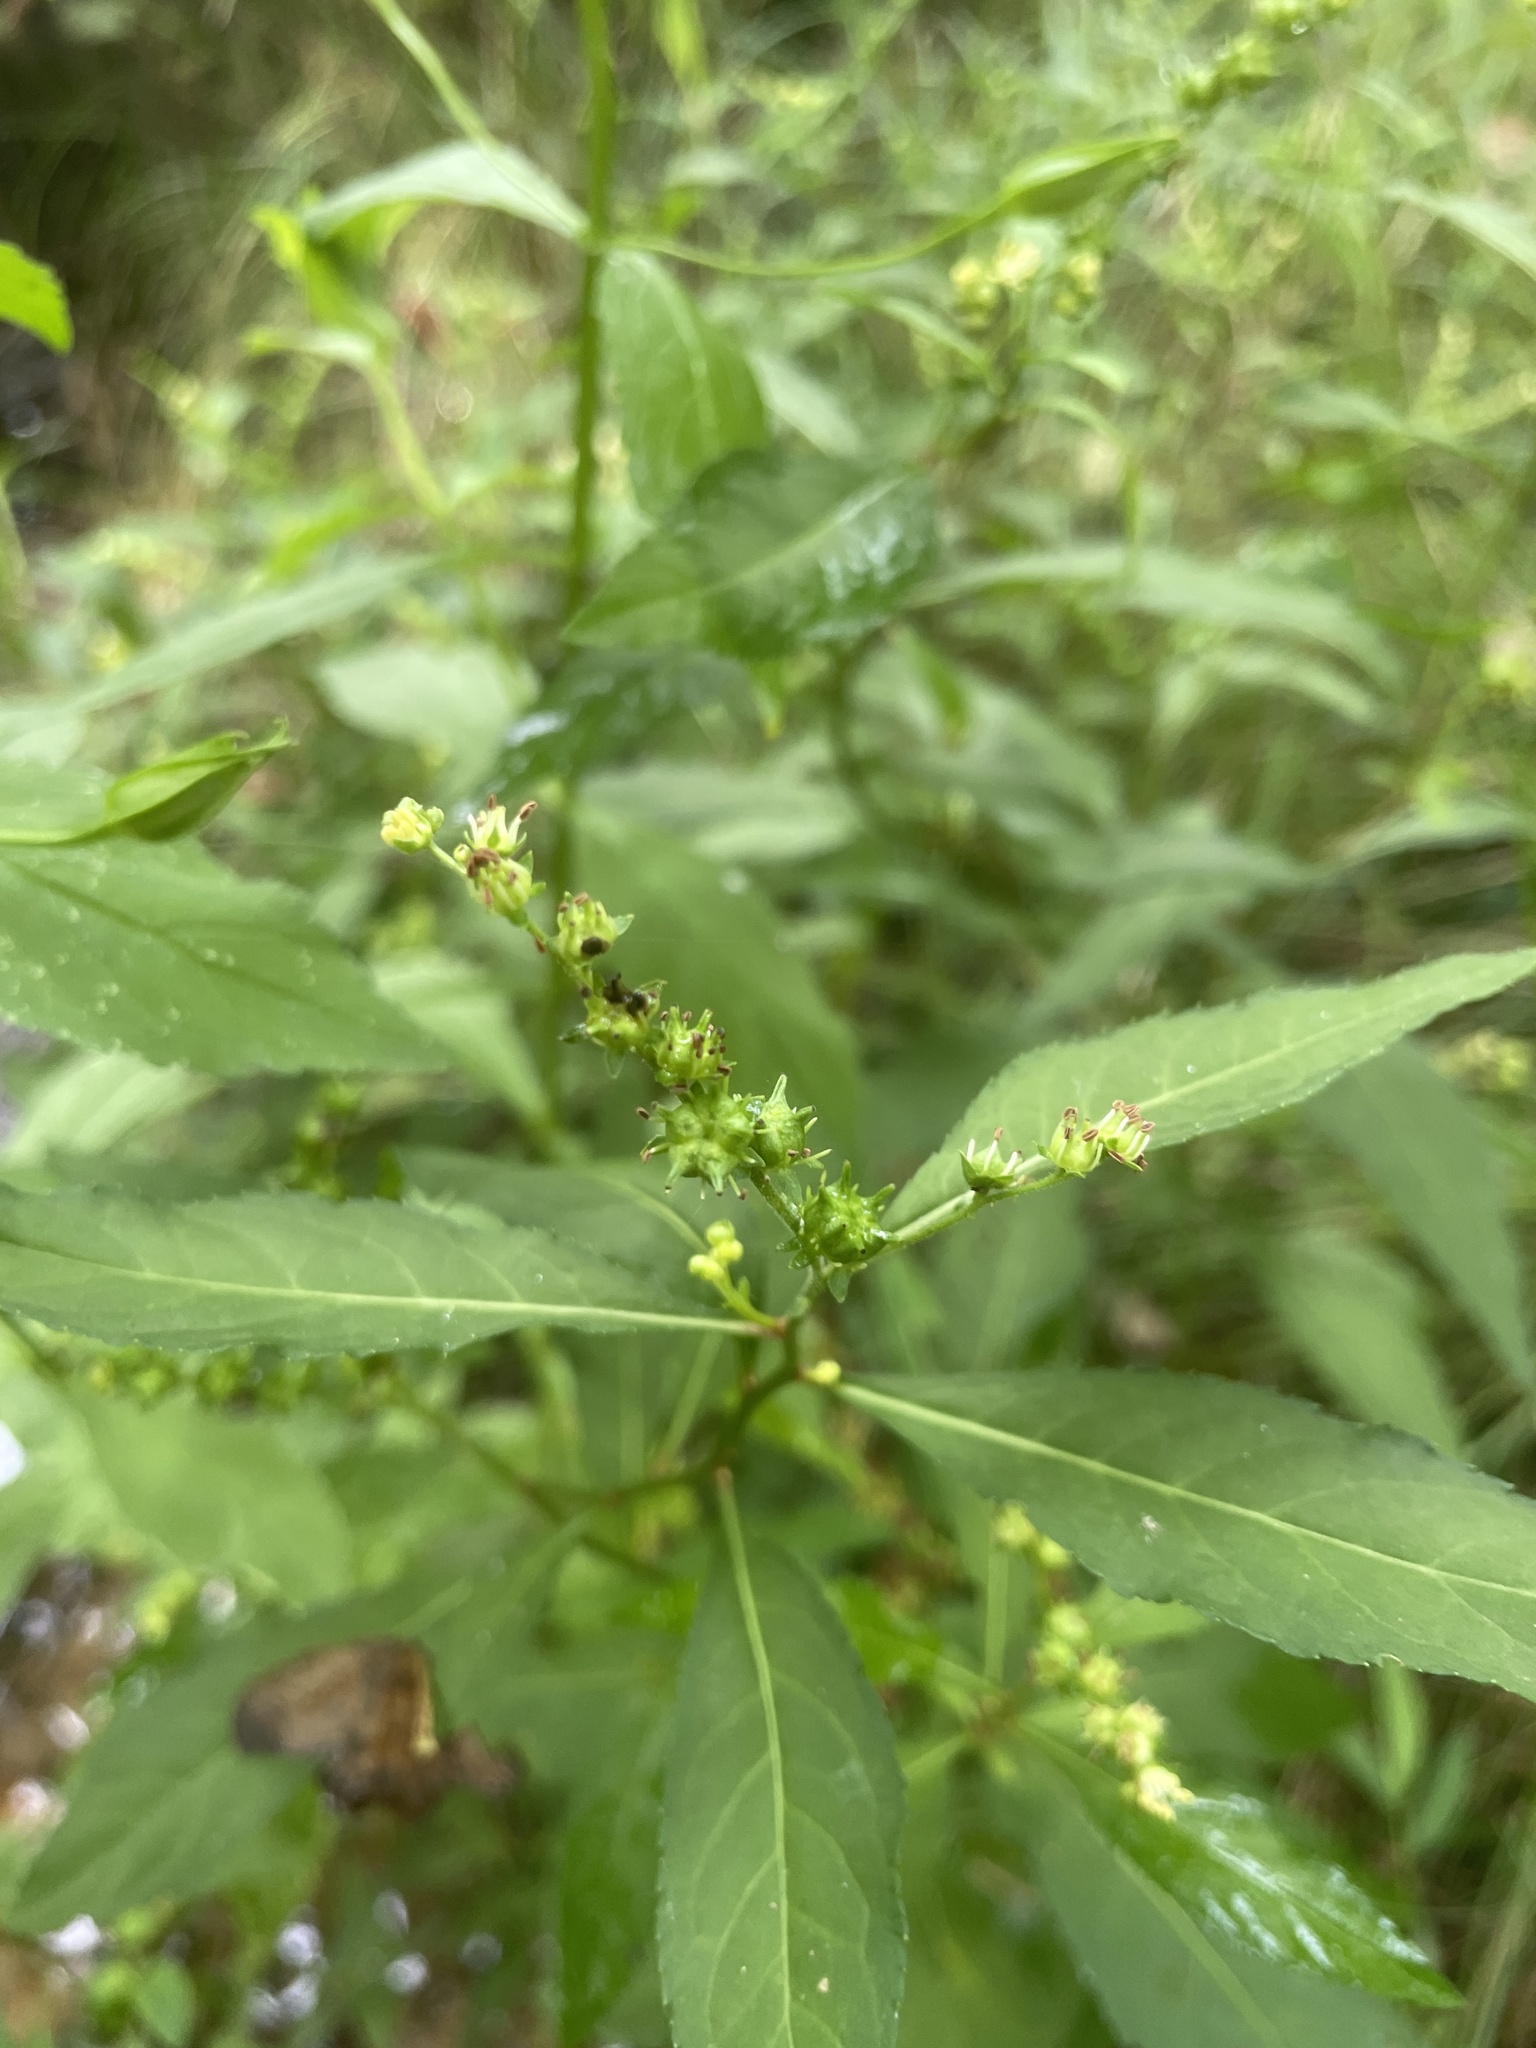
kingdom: Plantae
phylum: Tracheophyta
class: Magnoliopsida
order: Saxifragales
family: Penthoraceae
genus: Penthorum
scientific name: Penthorum sedoides
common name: Ditch stonecrop
